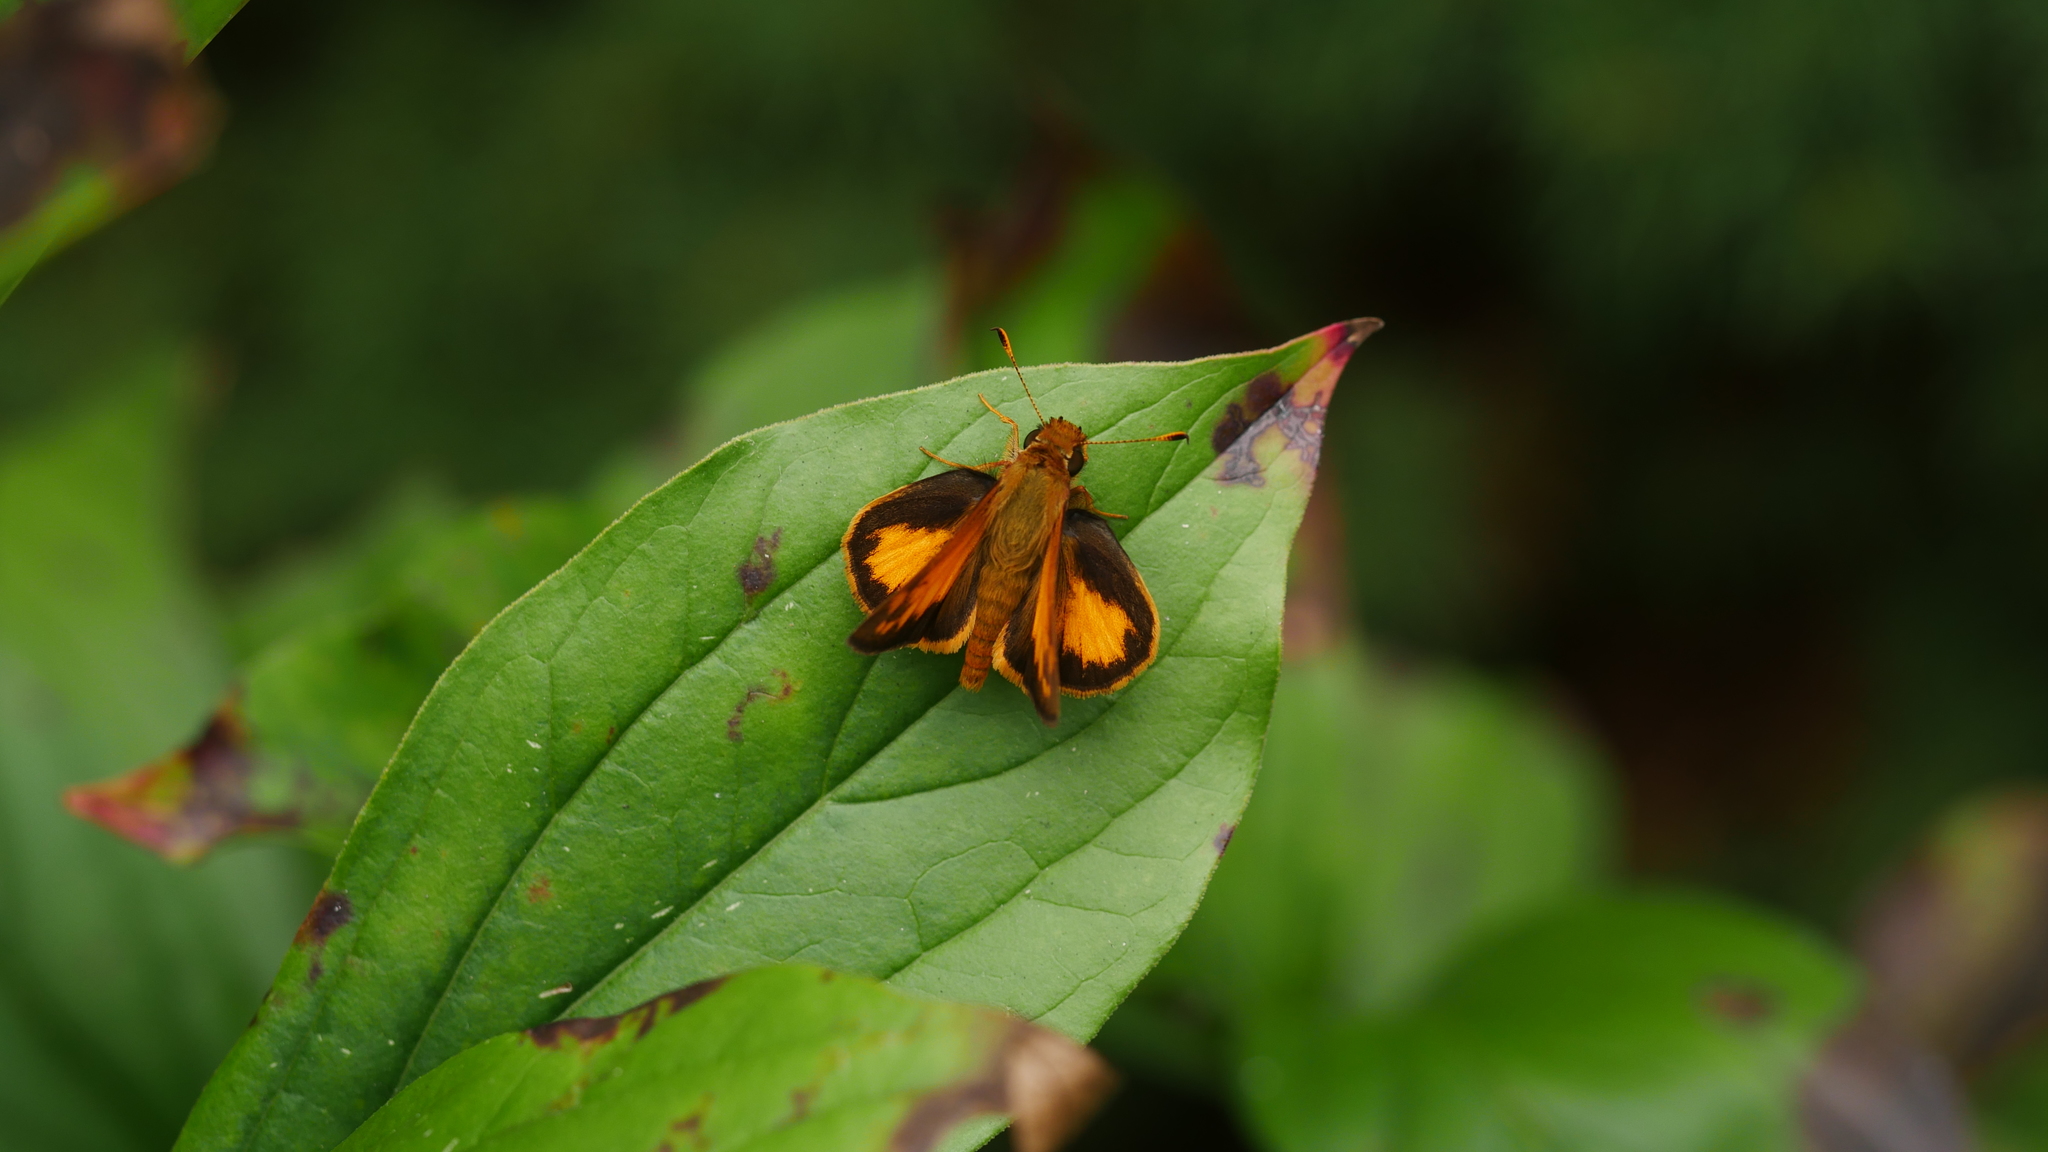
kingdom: Animalia
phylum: Arthropoda
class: Insecta
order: Lepidoptera
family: Hesperiidae
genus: Lon
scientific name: Lon zabulon
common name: Zabulon skipper
